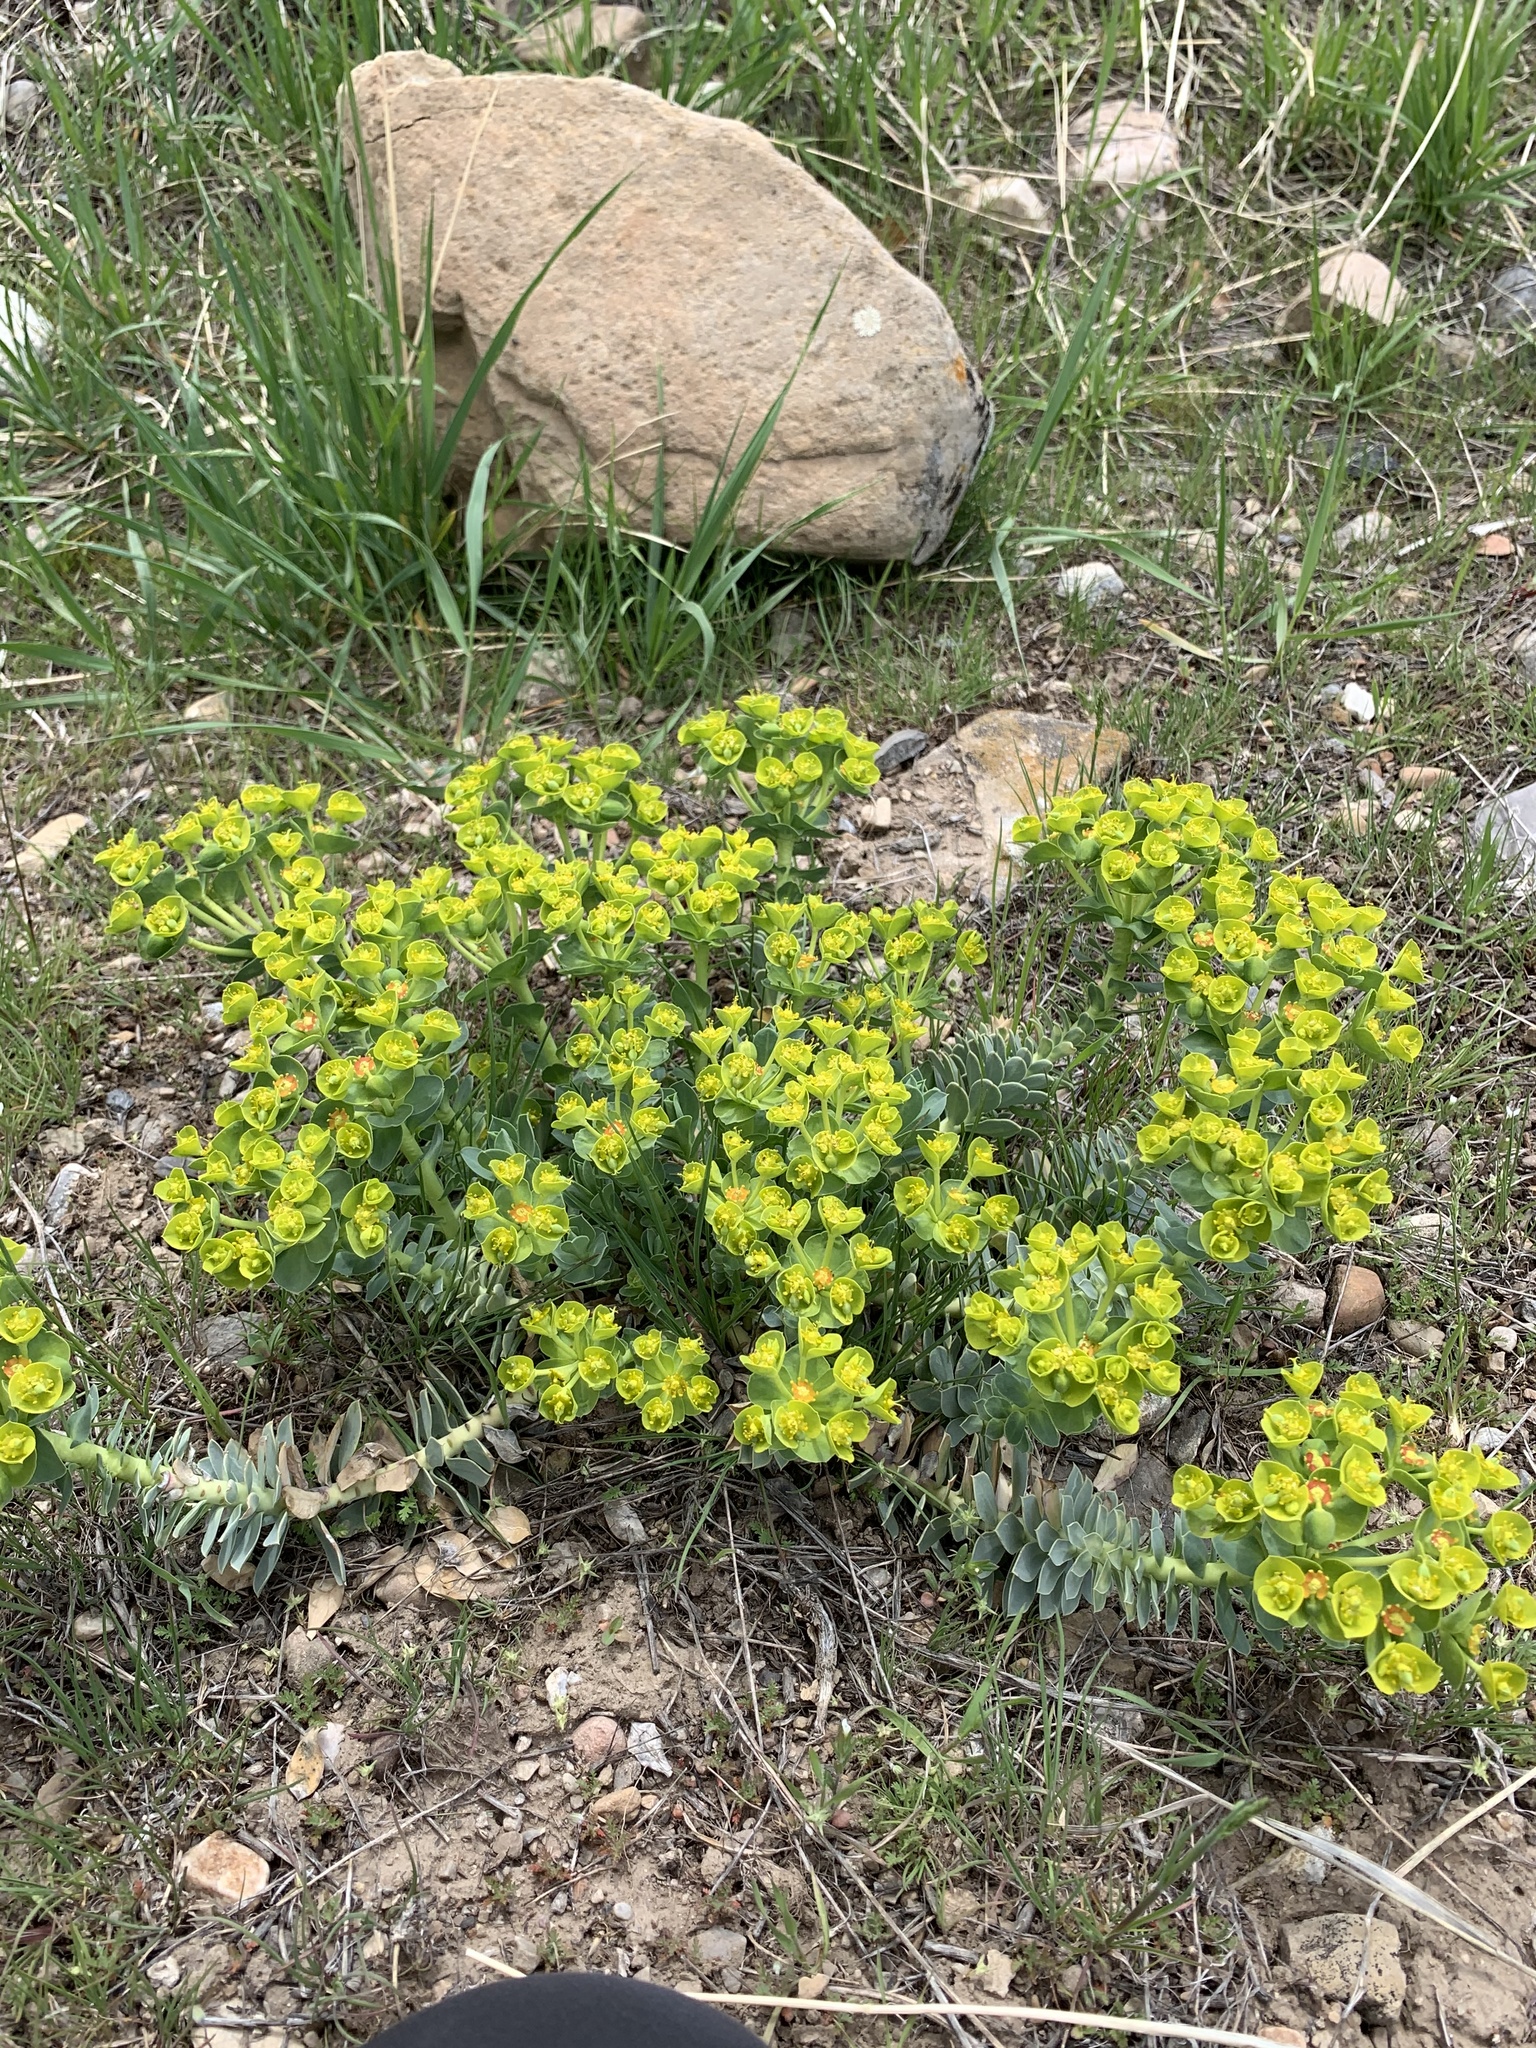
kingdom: Plantae
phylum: Tracheophyta
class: Magnoliopsida
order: Malpighiales
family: Euphorbiaceae
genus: Euphorbia
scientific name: Euphorbia myrsinites
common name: Myrtle spurge
